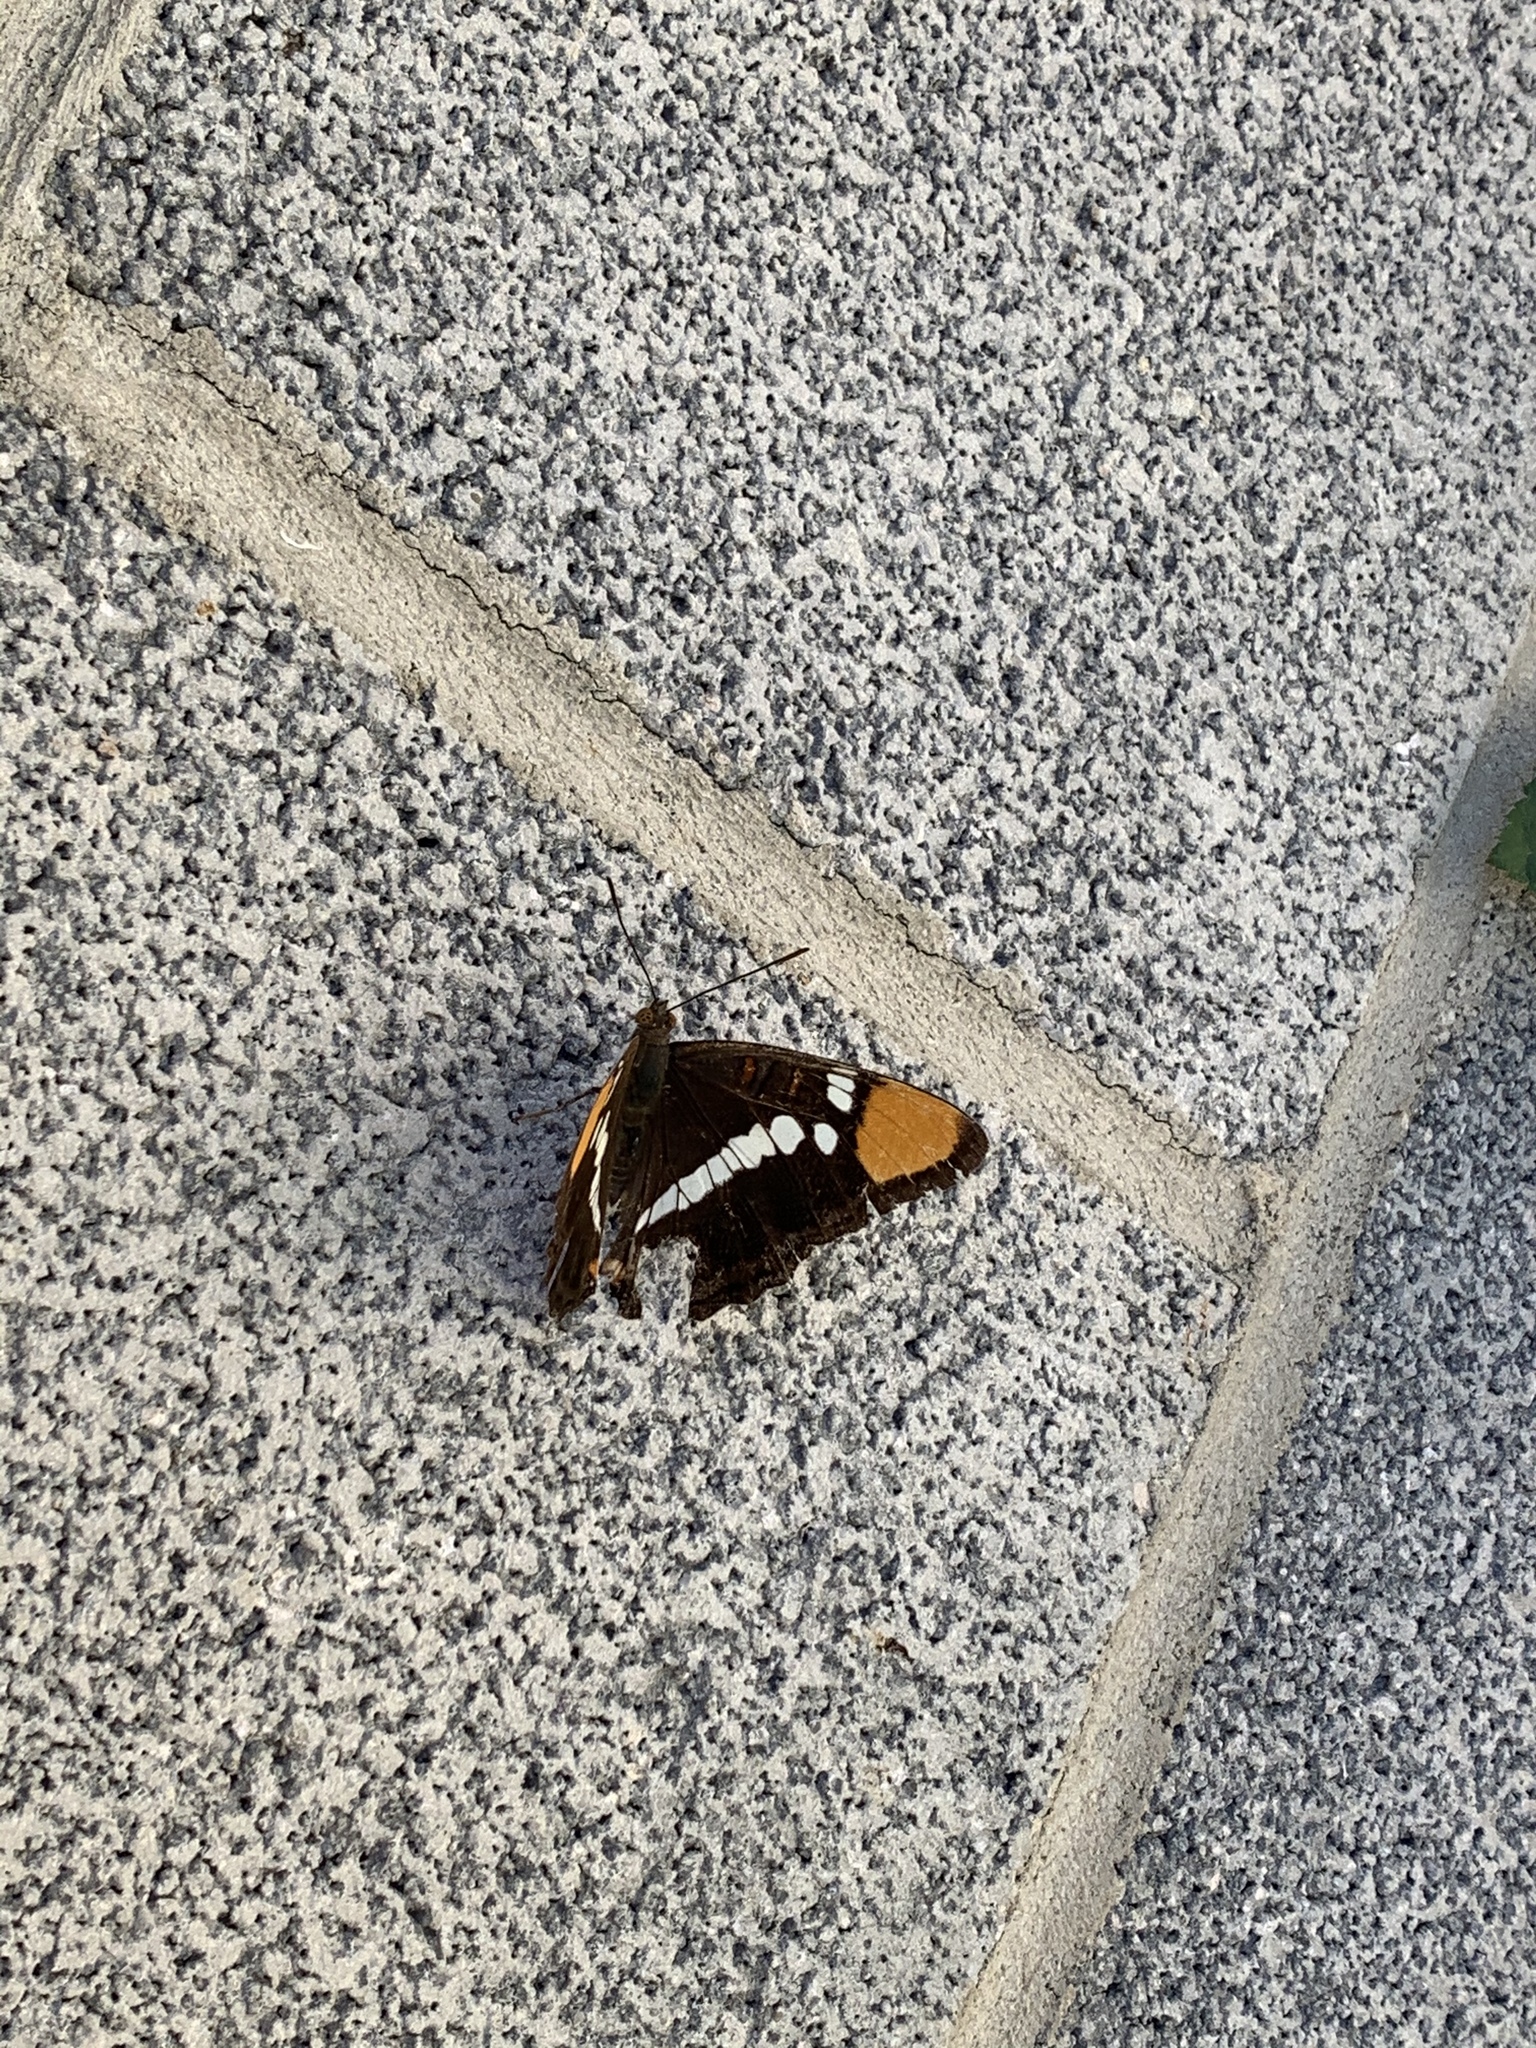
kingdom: Animalia
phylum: Arthropoda
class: Insecta
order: Lepidoptera
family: Nymphalidae
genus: Limenitis
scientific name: Limenitis bredowii
